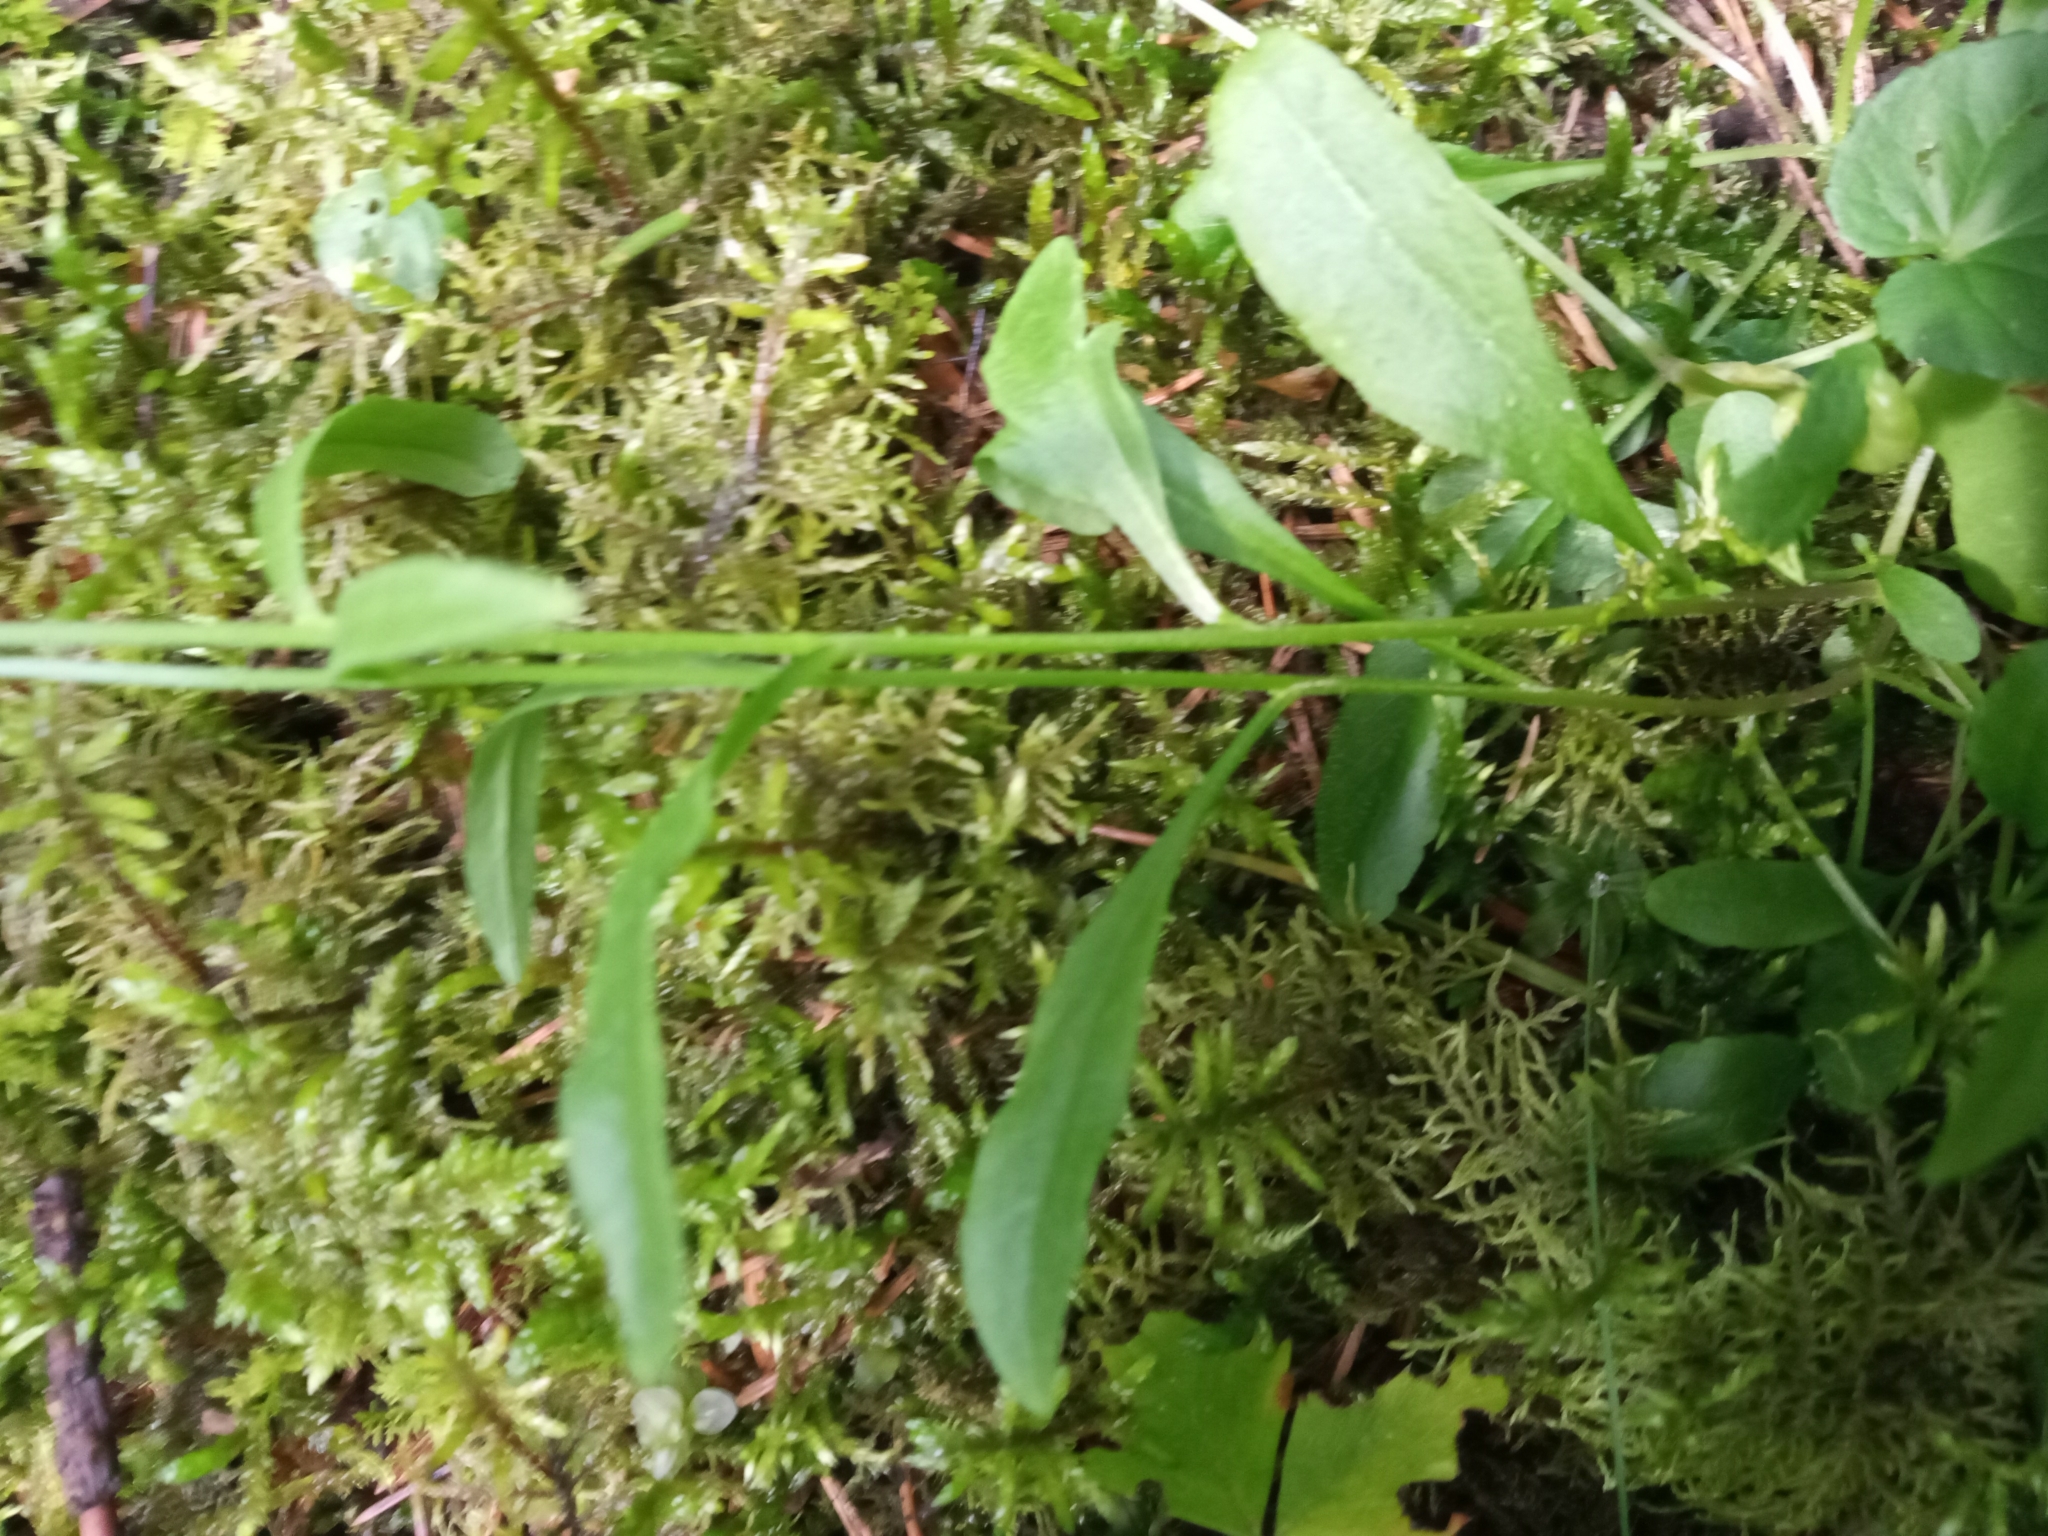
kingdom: Plantae
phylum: Tracheophyta
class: Magnoliopsida
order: Asterales
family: Campanulaceae
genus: Campanula
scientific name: Campanula patula
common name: Spreading bellflower
